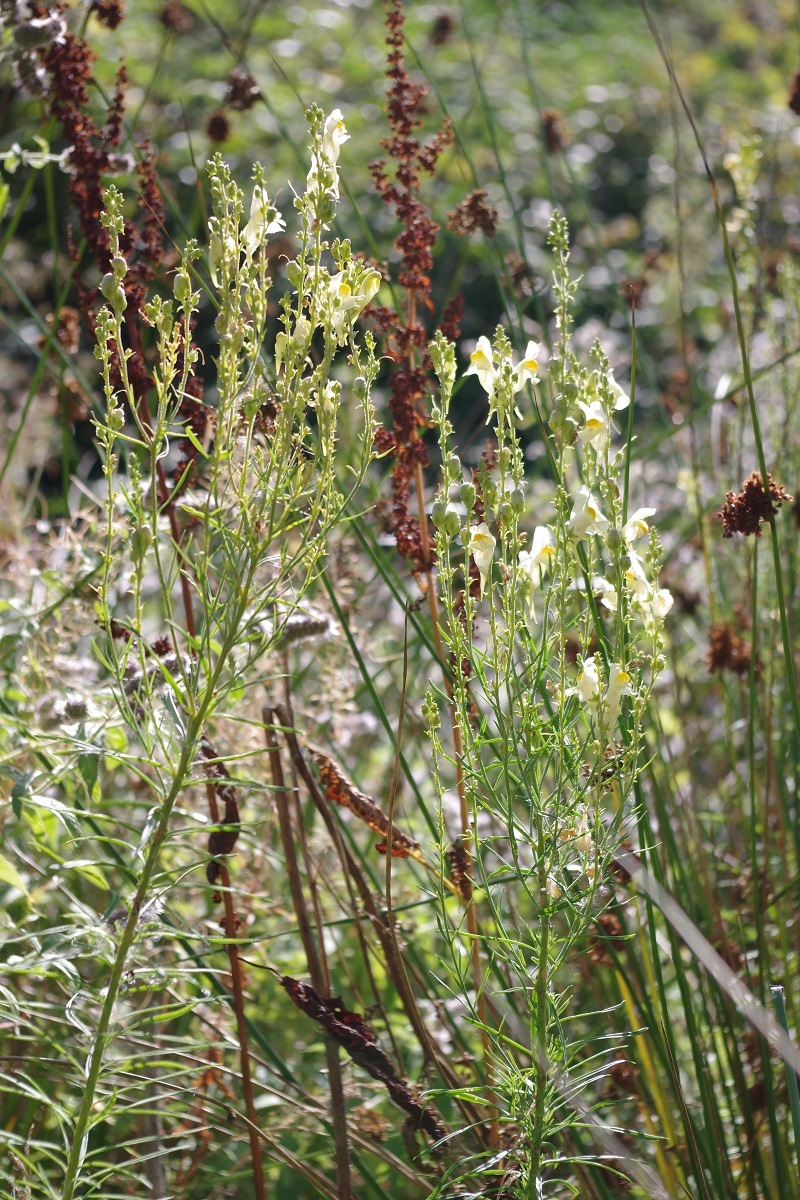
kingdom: Plantae
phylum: Tracheophyta
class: Magnoliopsida
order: Lamiales
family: Plantaginaceae
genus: Linaria
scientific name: Linaria vulgaris
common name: Butter and eggs
